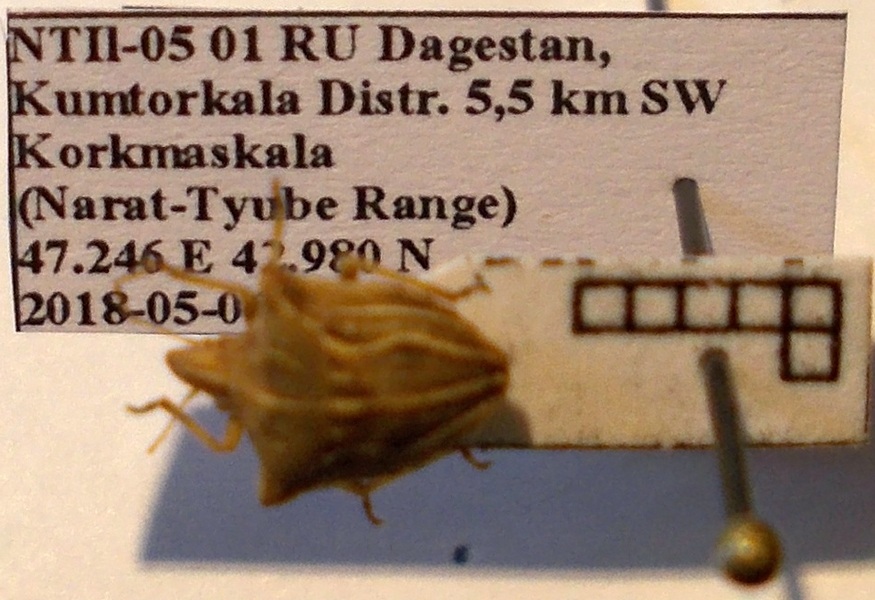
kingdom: Animalia
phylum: Arthropoda
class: Insecta
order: Hemiptera
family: Pentatomidae
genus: Ancyrosoma
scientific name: Ancyrosoma leucogrammes
